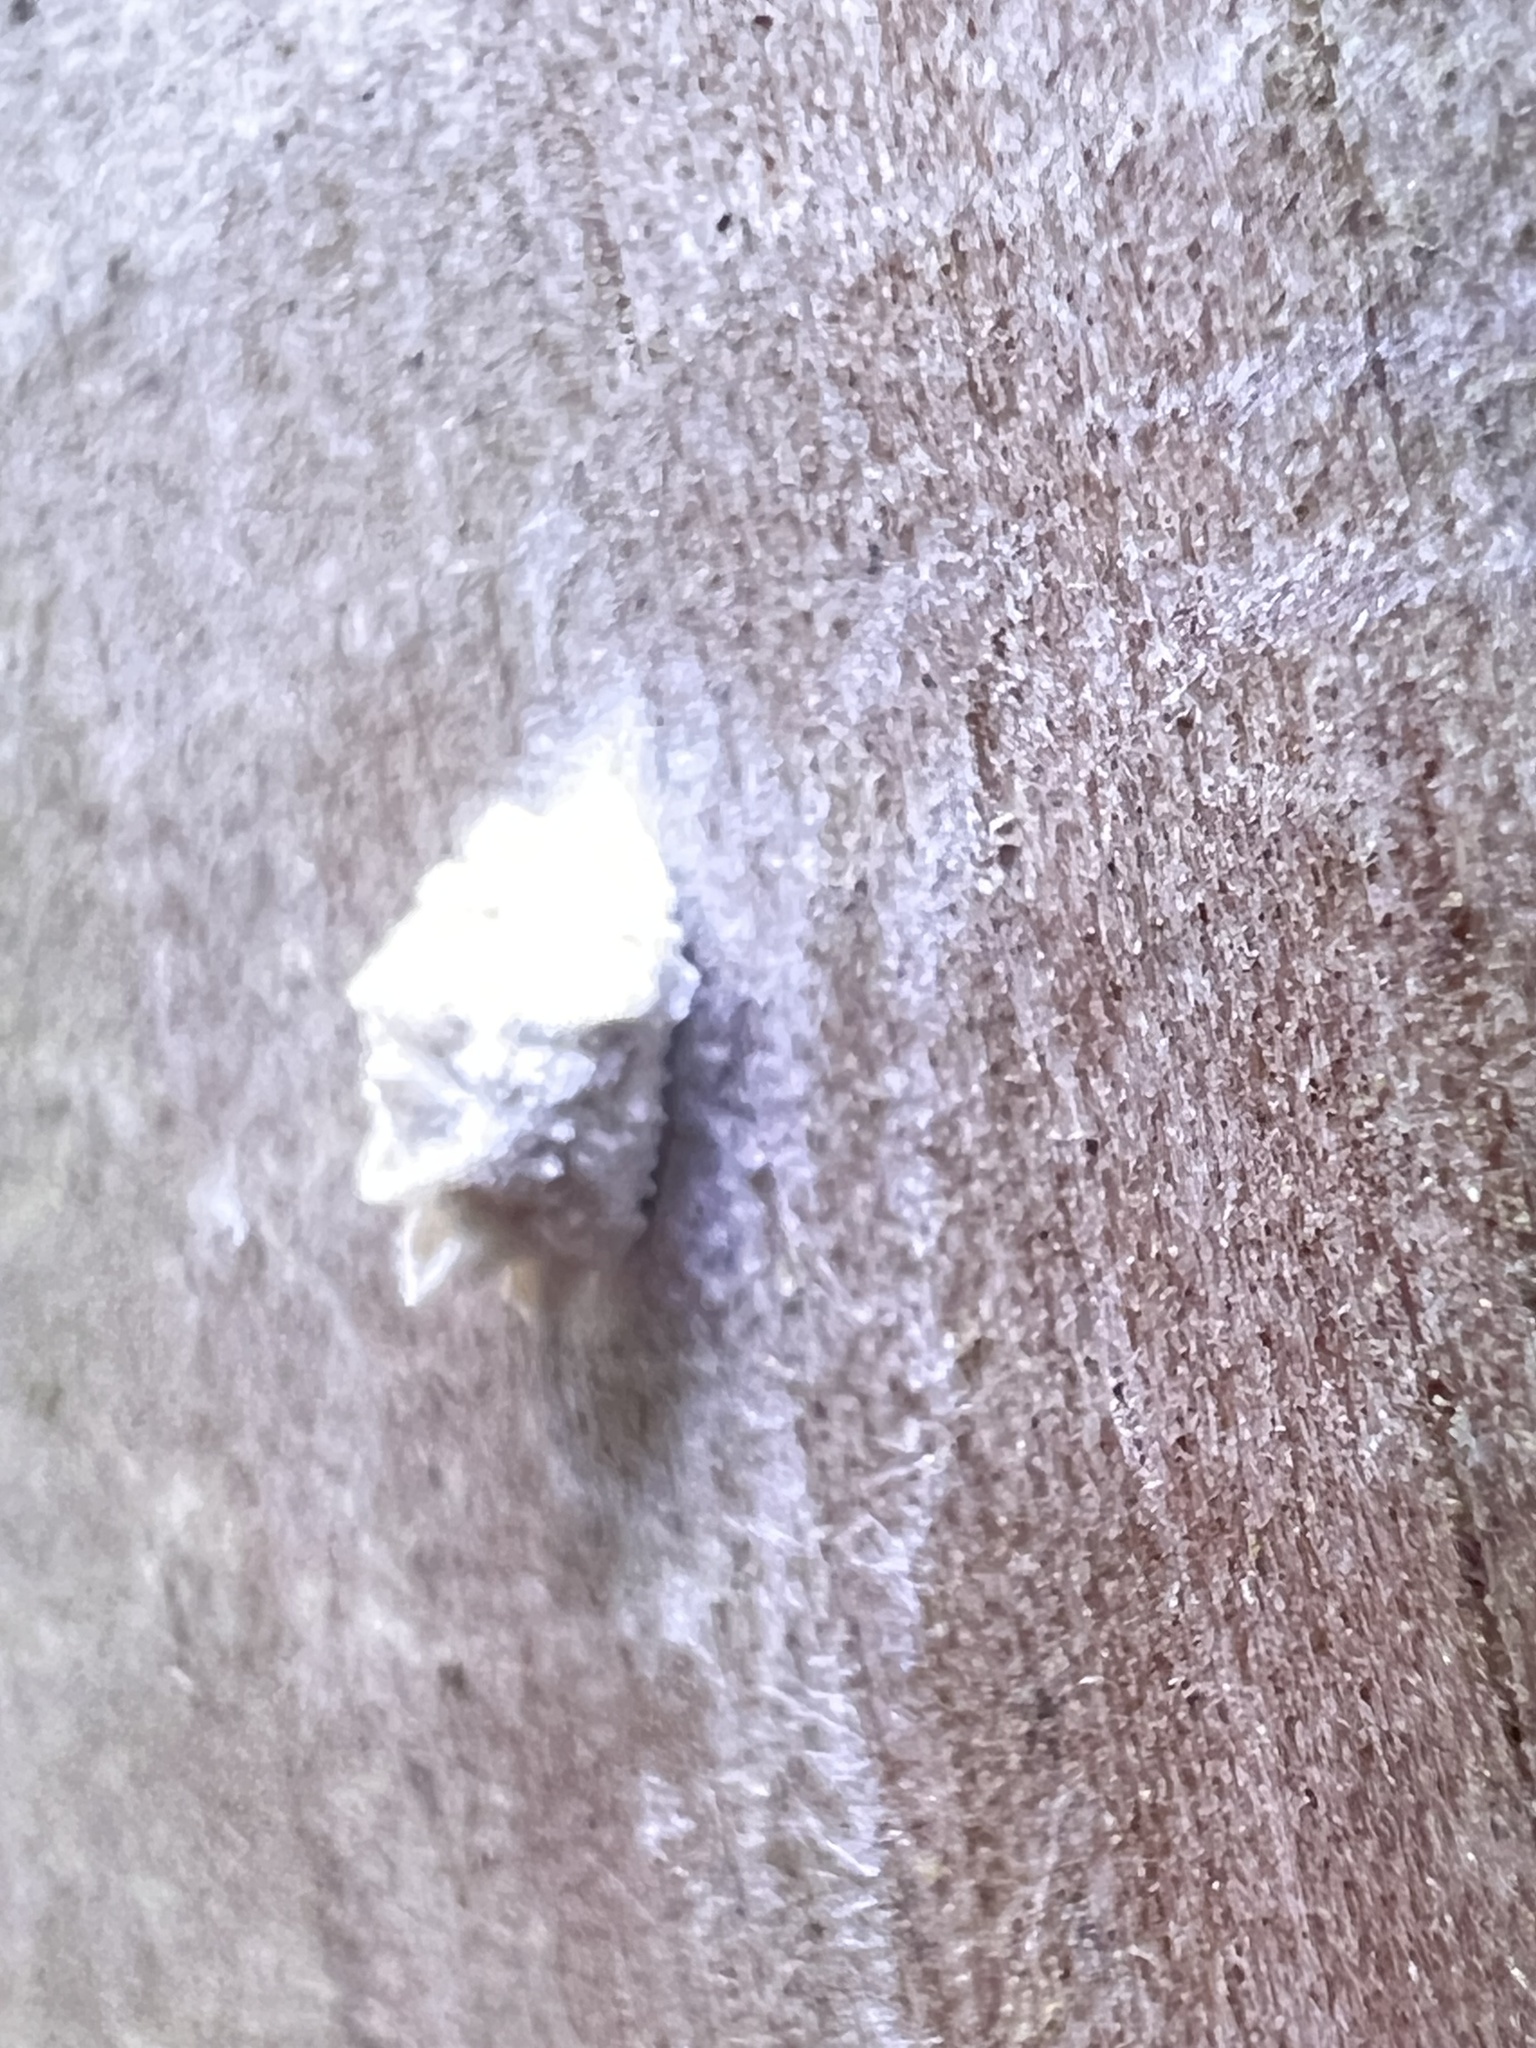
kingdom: Animalia
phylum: Arthropoda
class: Insecta
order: Lepidoptera
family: Epipyropidae
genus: Fulgoraecia
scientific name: Fulgoraecia exigua
